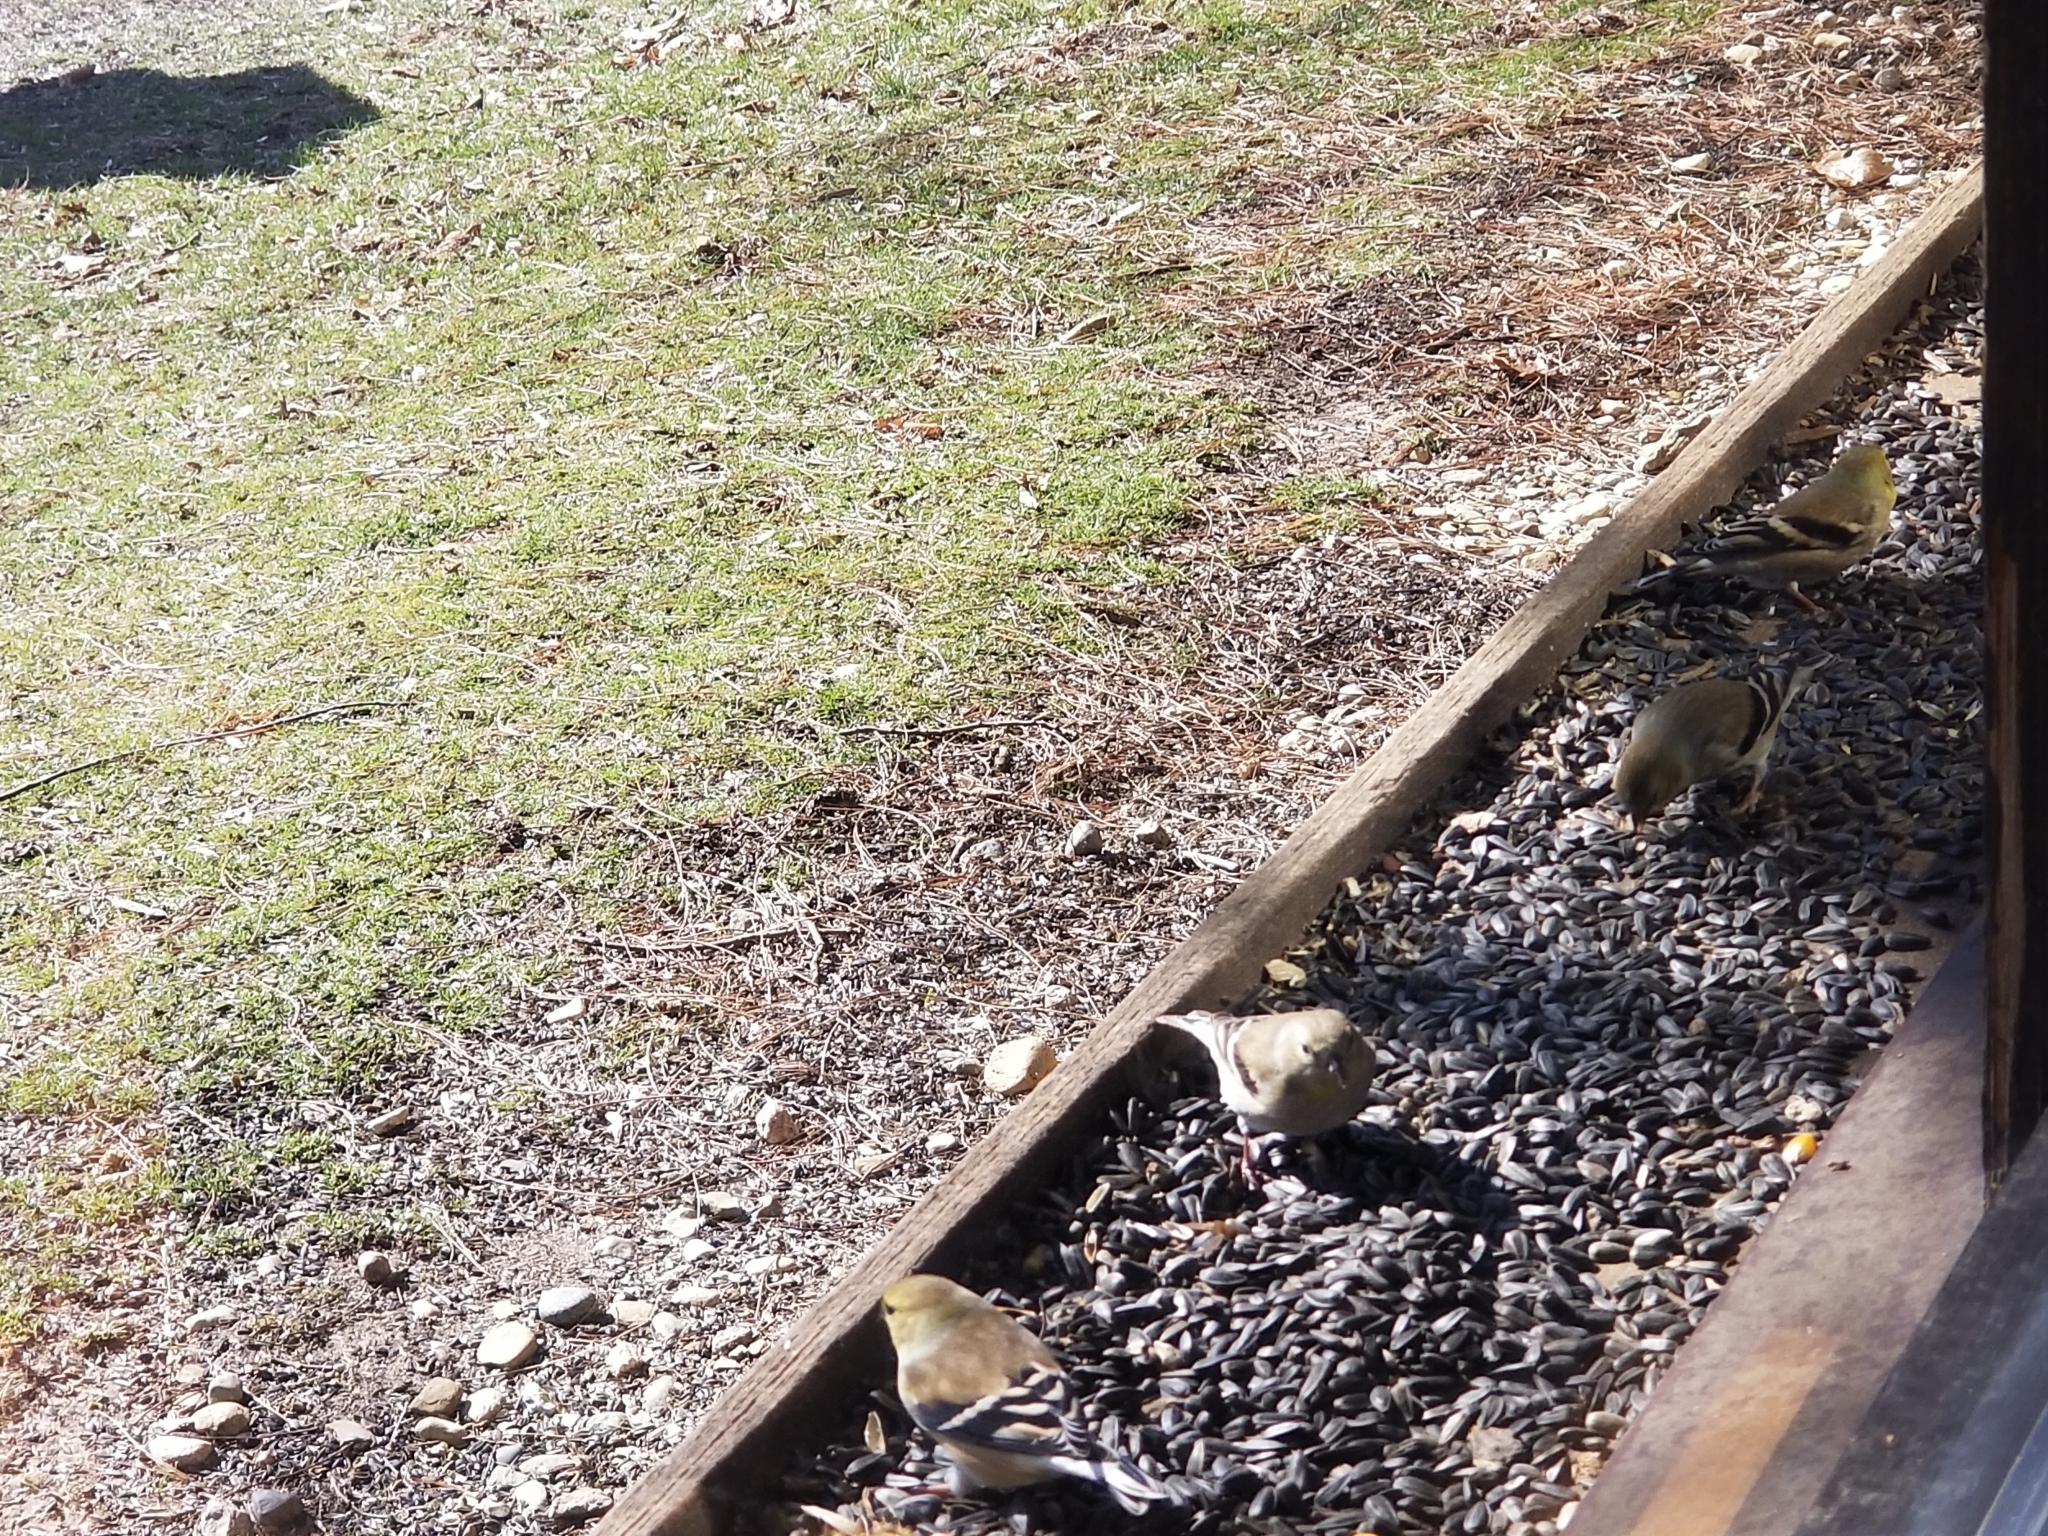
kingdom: Animalia
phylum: Chordata
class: Aves
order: Passeriformes
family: Fringillidae
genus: Spinus
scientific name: Spinus tristis
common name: American goldfinch
